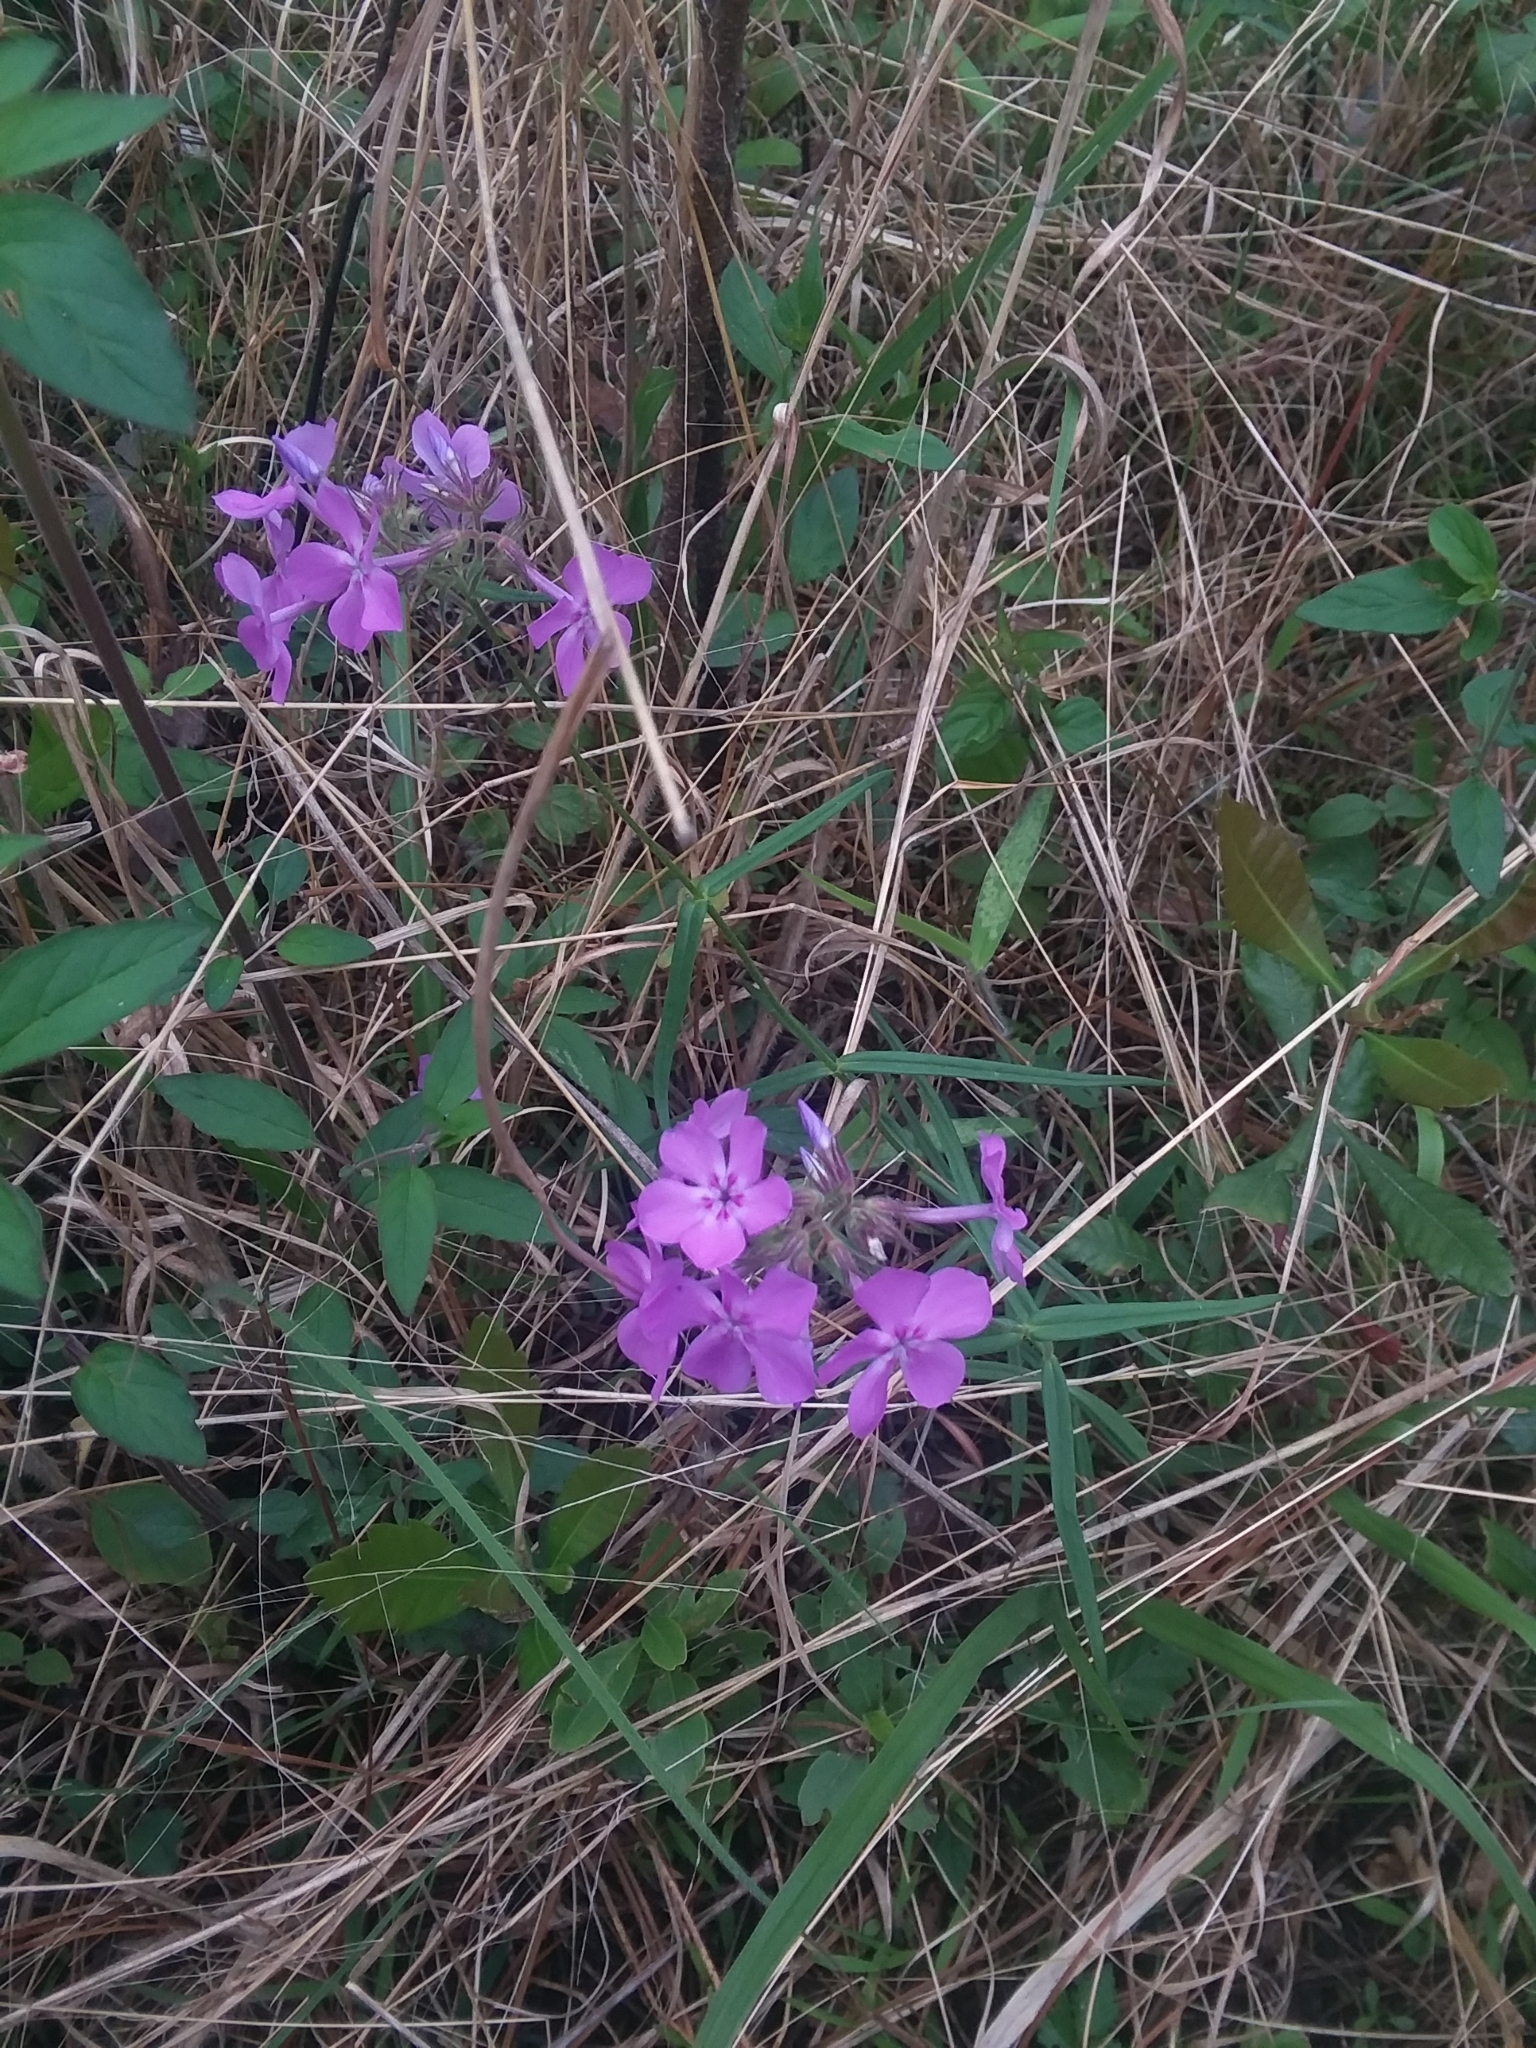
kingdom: Plantae
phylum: Tracheophyta
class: Magnoliopsida
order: Ericales
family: Polemoniaceae
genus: Phlox
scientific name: Phlox pilosa
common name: Prairie phlox
